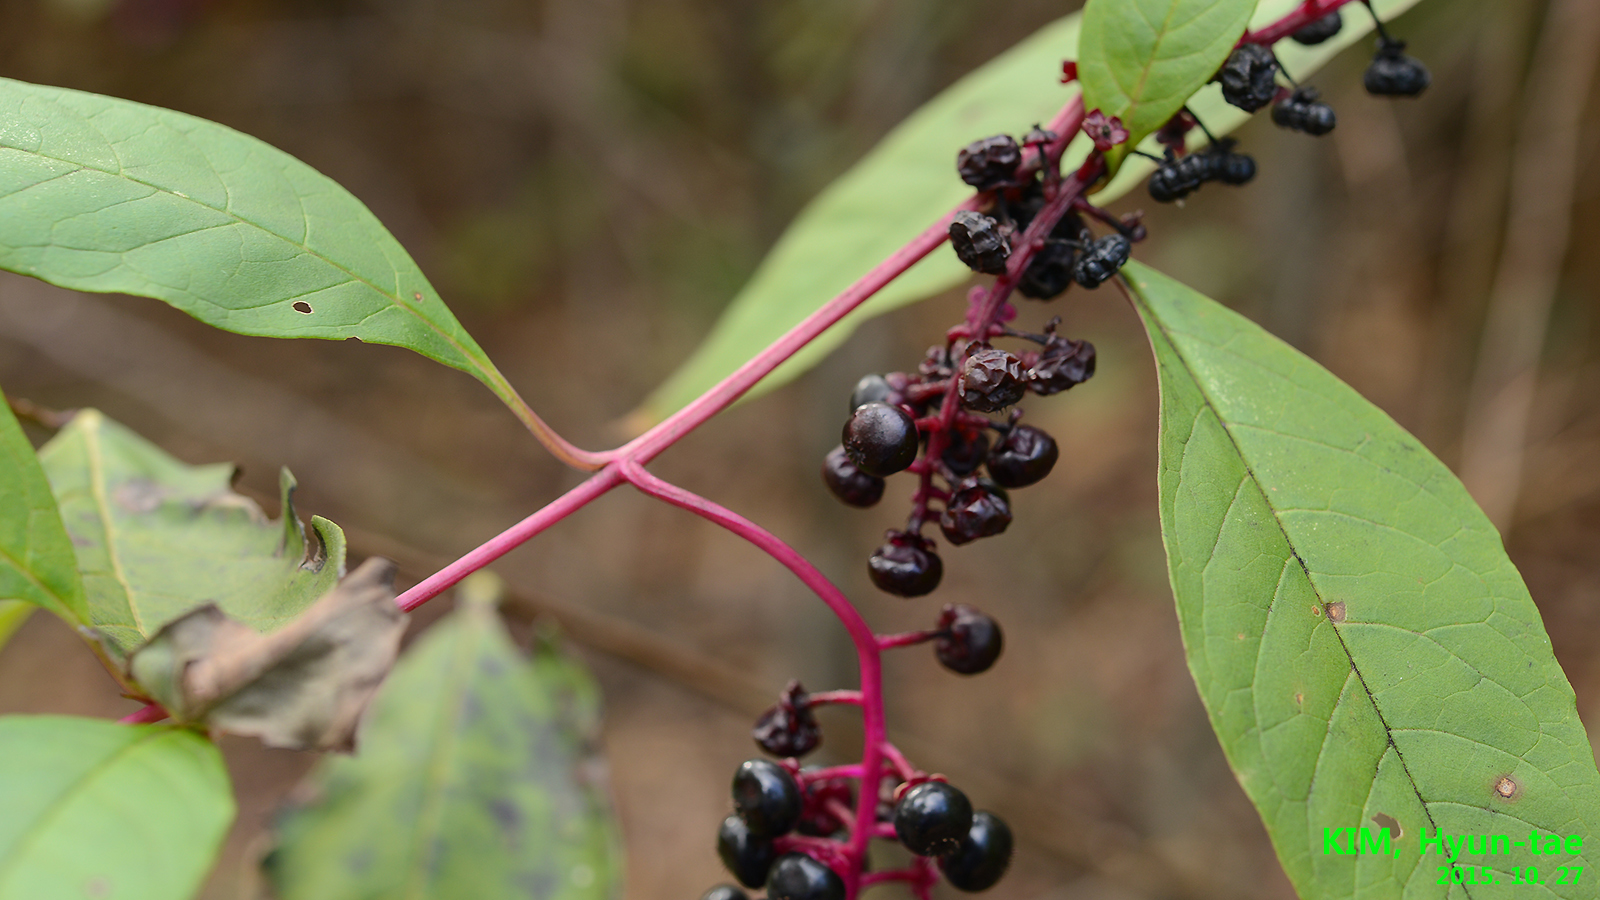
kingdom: Plantae
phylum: Tracheophyta
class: Magnoliopsida
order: Caryophyllales
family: Phytolaccaceae
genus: Phytolacca
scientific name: Phytolacca americana
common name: American pokeweed
